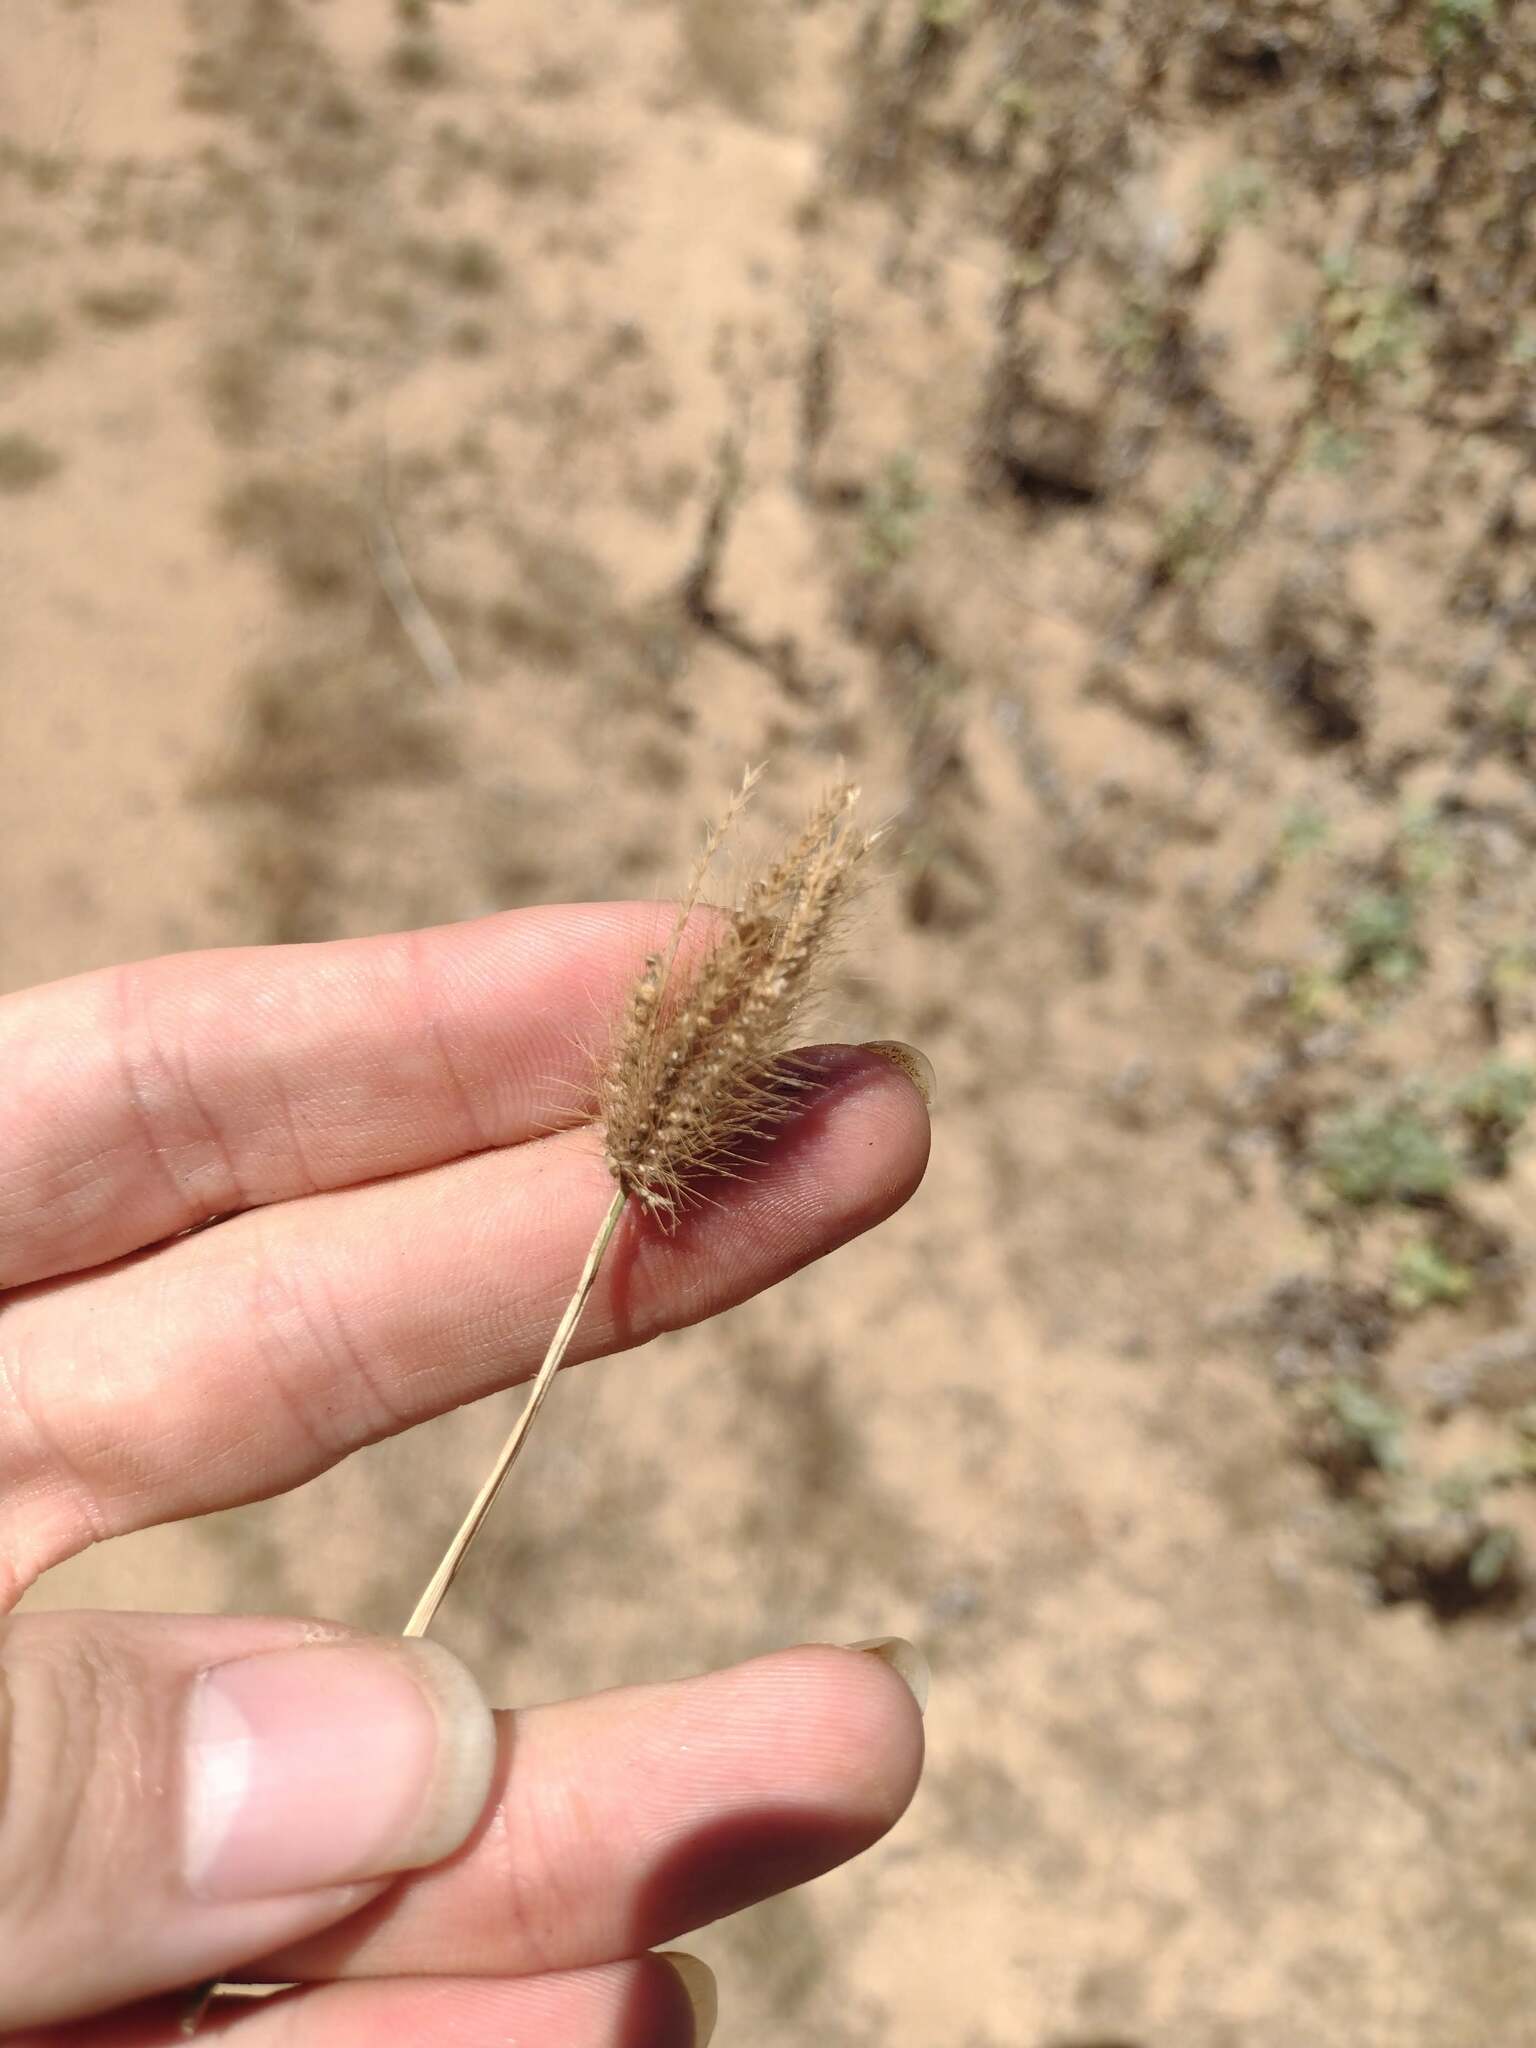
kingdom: Plantae
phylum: Tracheophyta
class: Liliopsida
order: Poales
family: Poaceae
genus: Chloris
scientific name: Chloris barbata
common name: Swollen fingergrass
